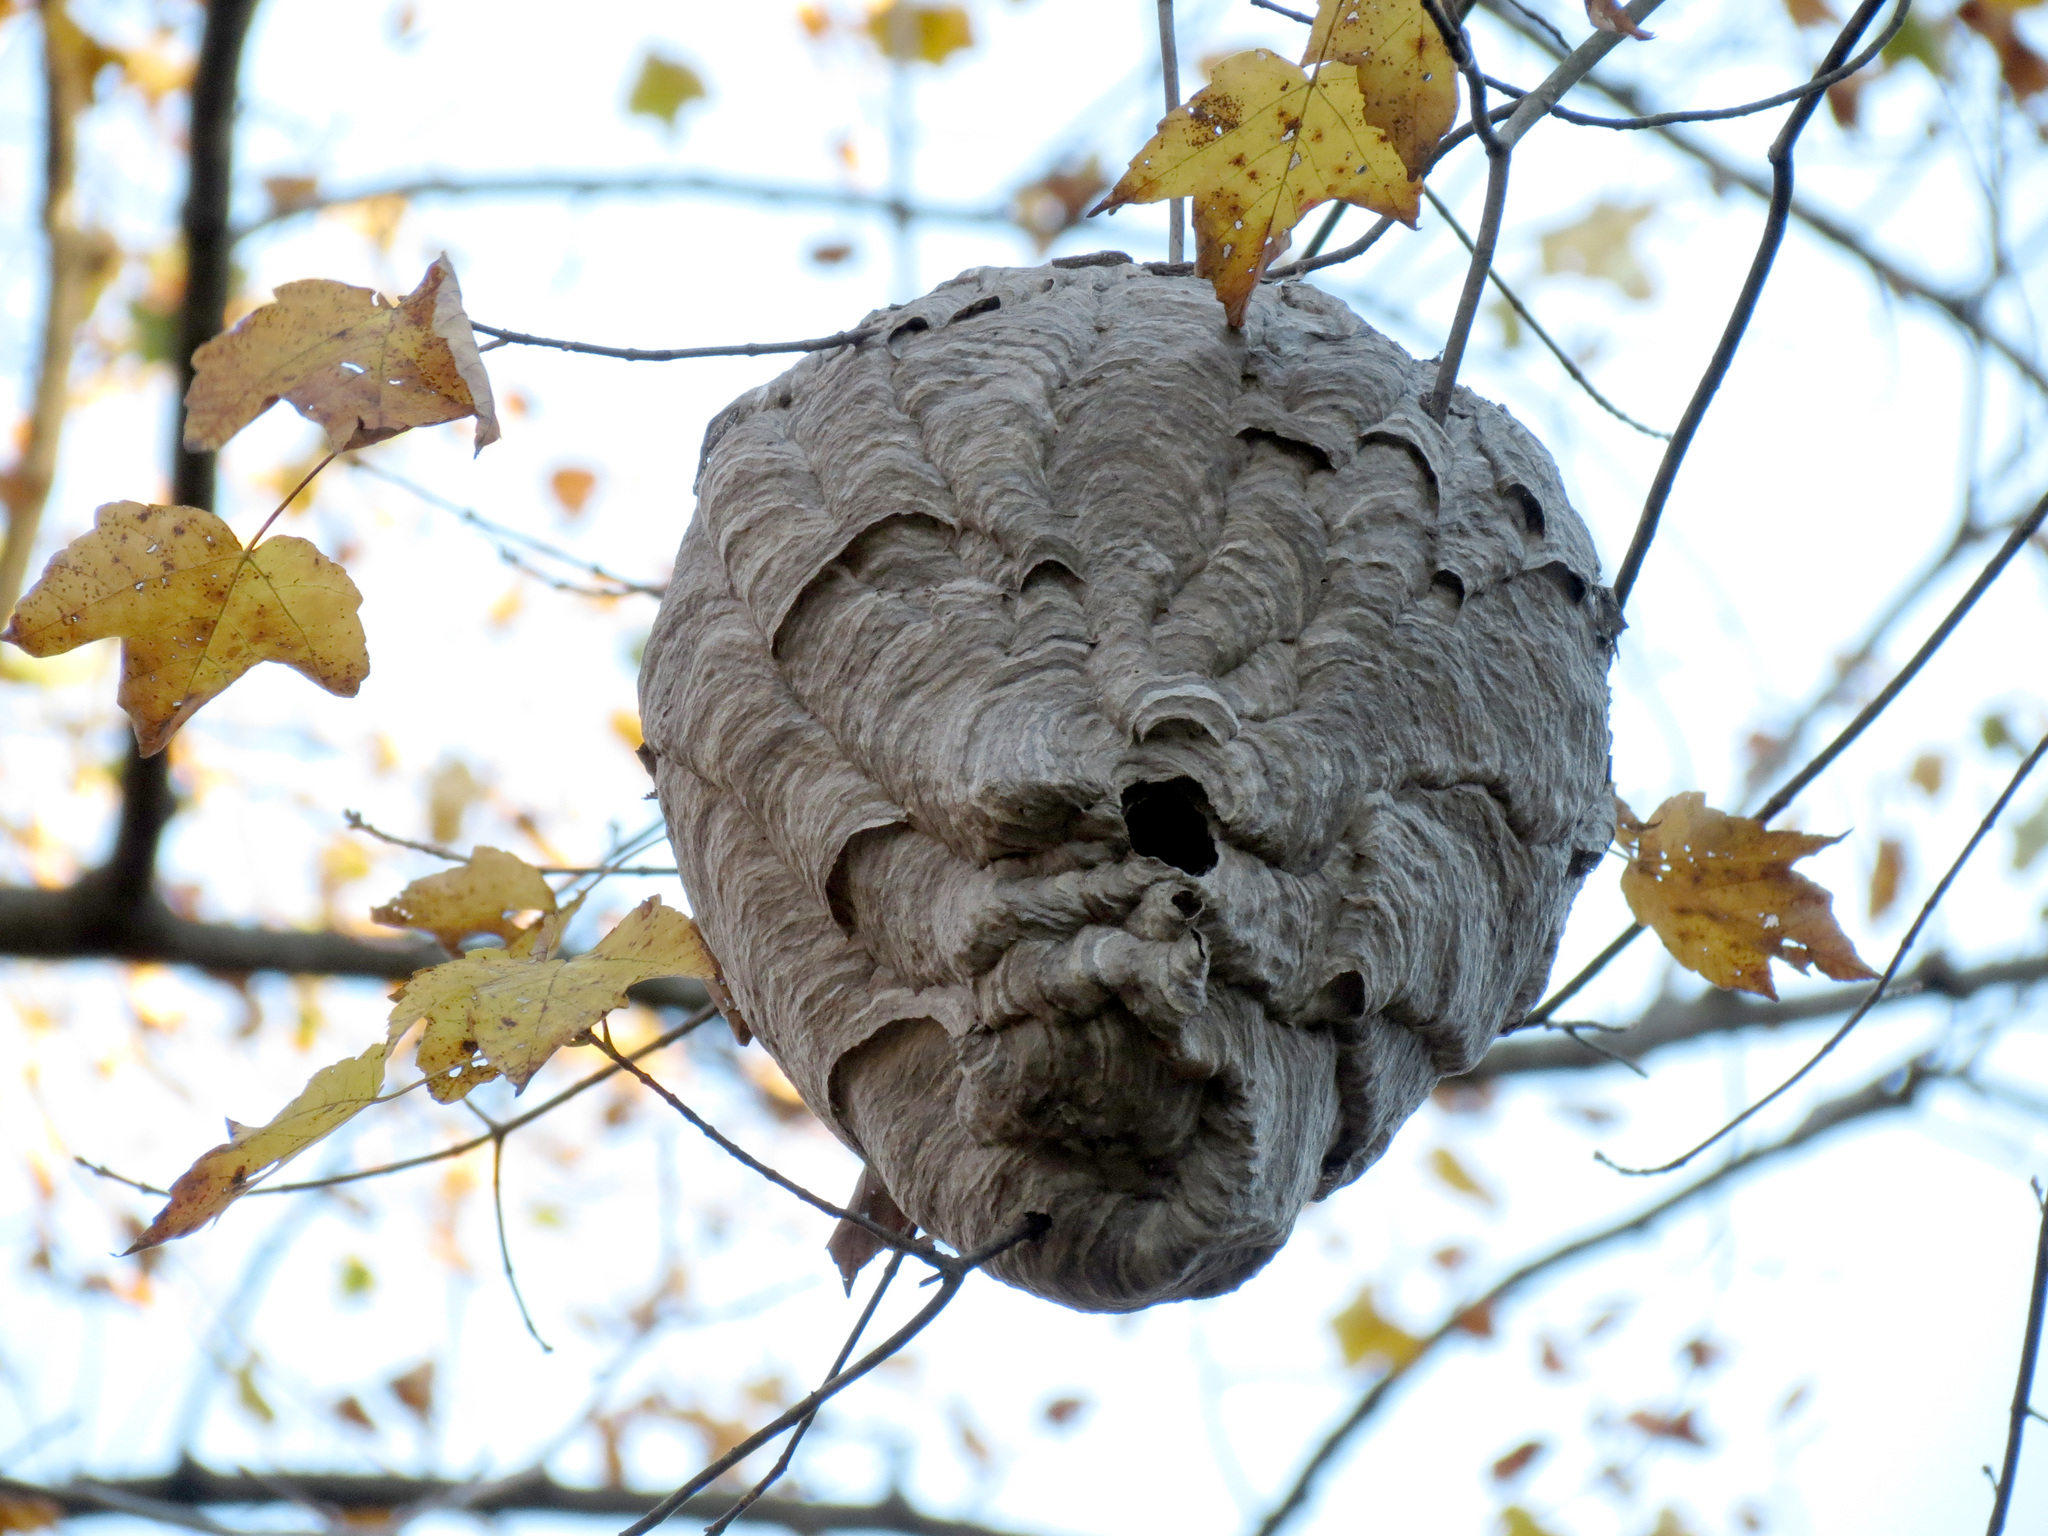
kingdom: Animalia
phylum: Arthropoda
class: Insecta
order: Hymenoptera
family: Vespidae
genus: Dolichovespula
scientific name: Dolichovespula maculata
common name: Bald-faced hornet
